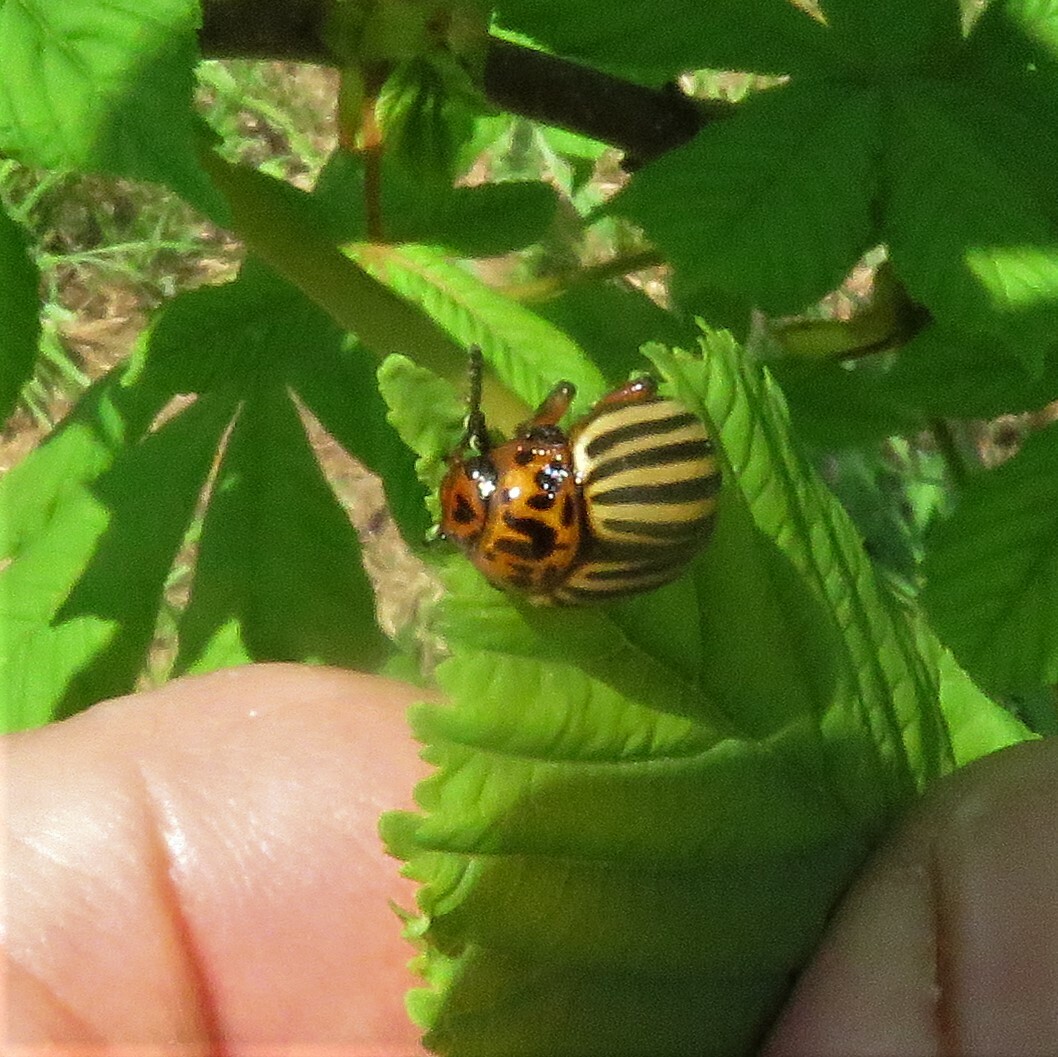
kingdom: Animalia
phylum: Arthropoda
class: Insecta
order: Coleoptera
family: Chrysomelidae
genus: Leptinotarsa
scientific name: Leptinotarsa decemlineata
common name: Colorado potato beetle
